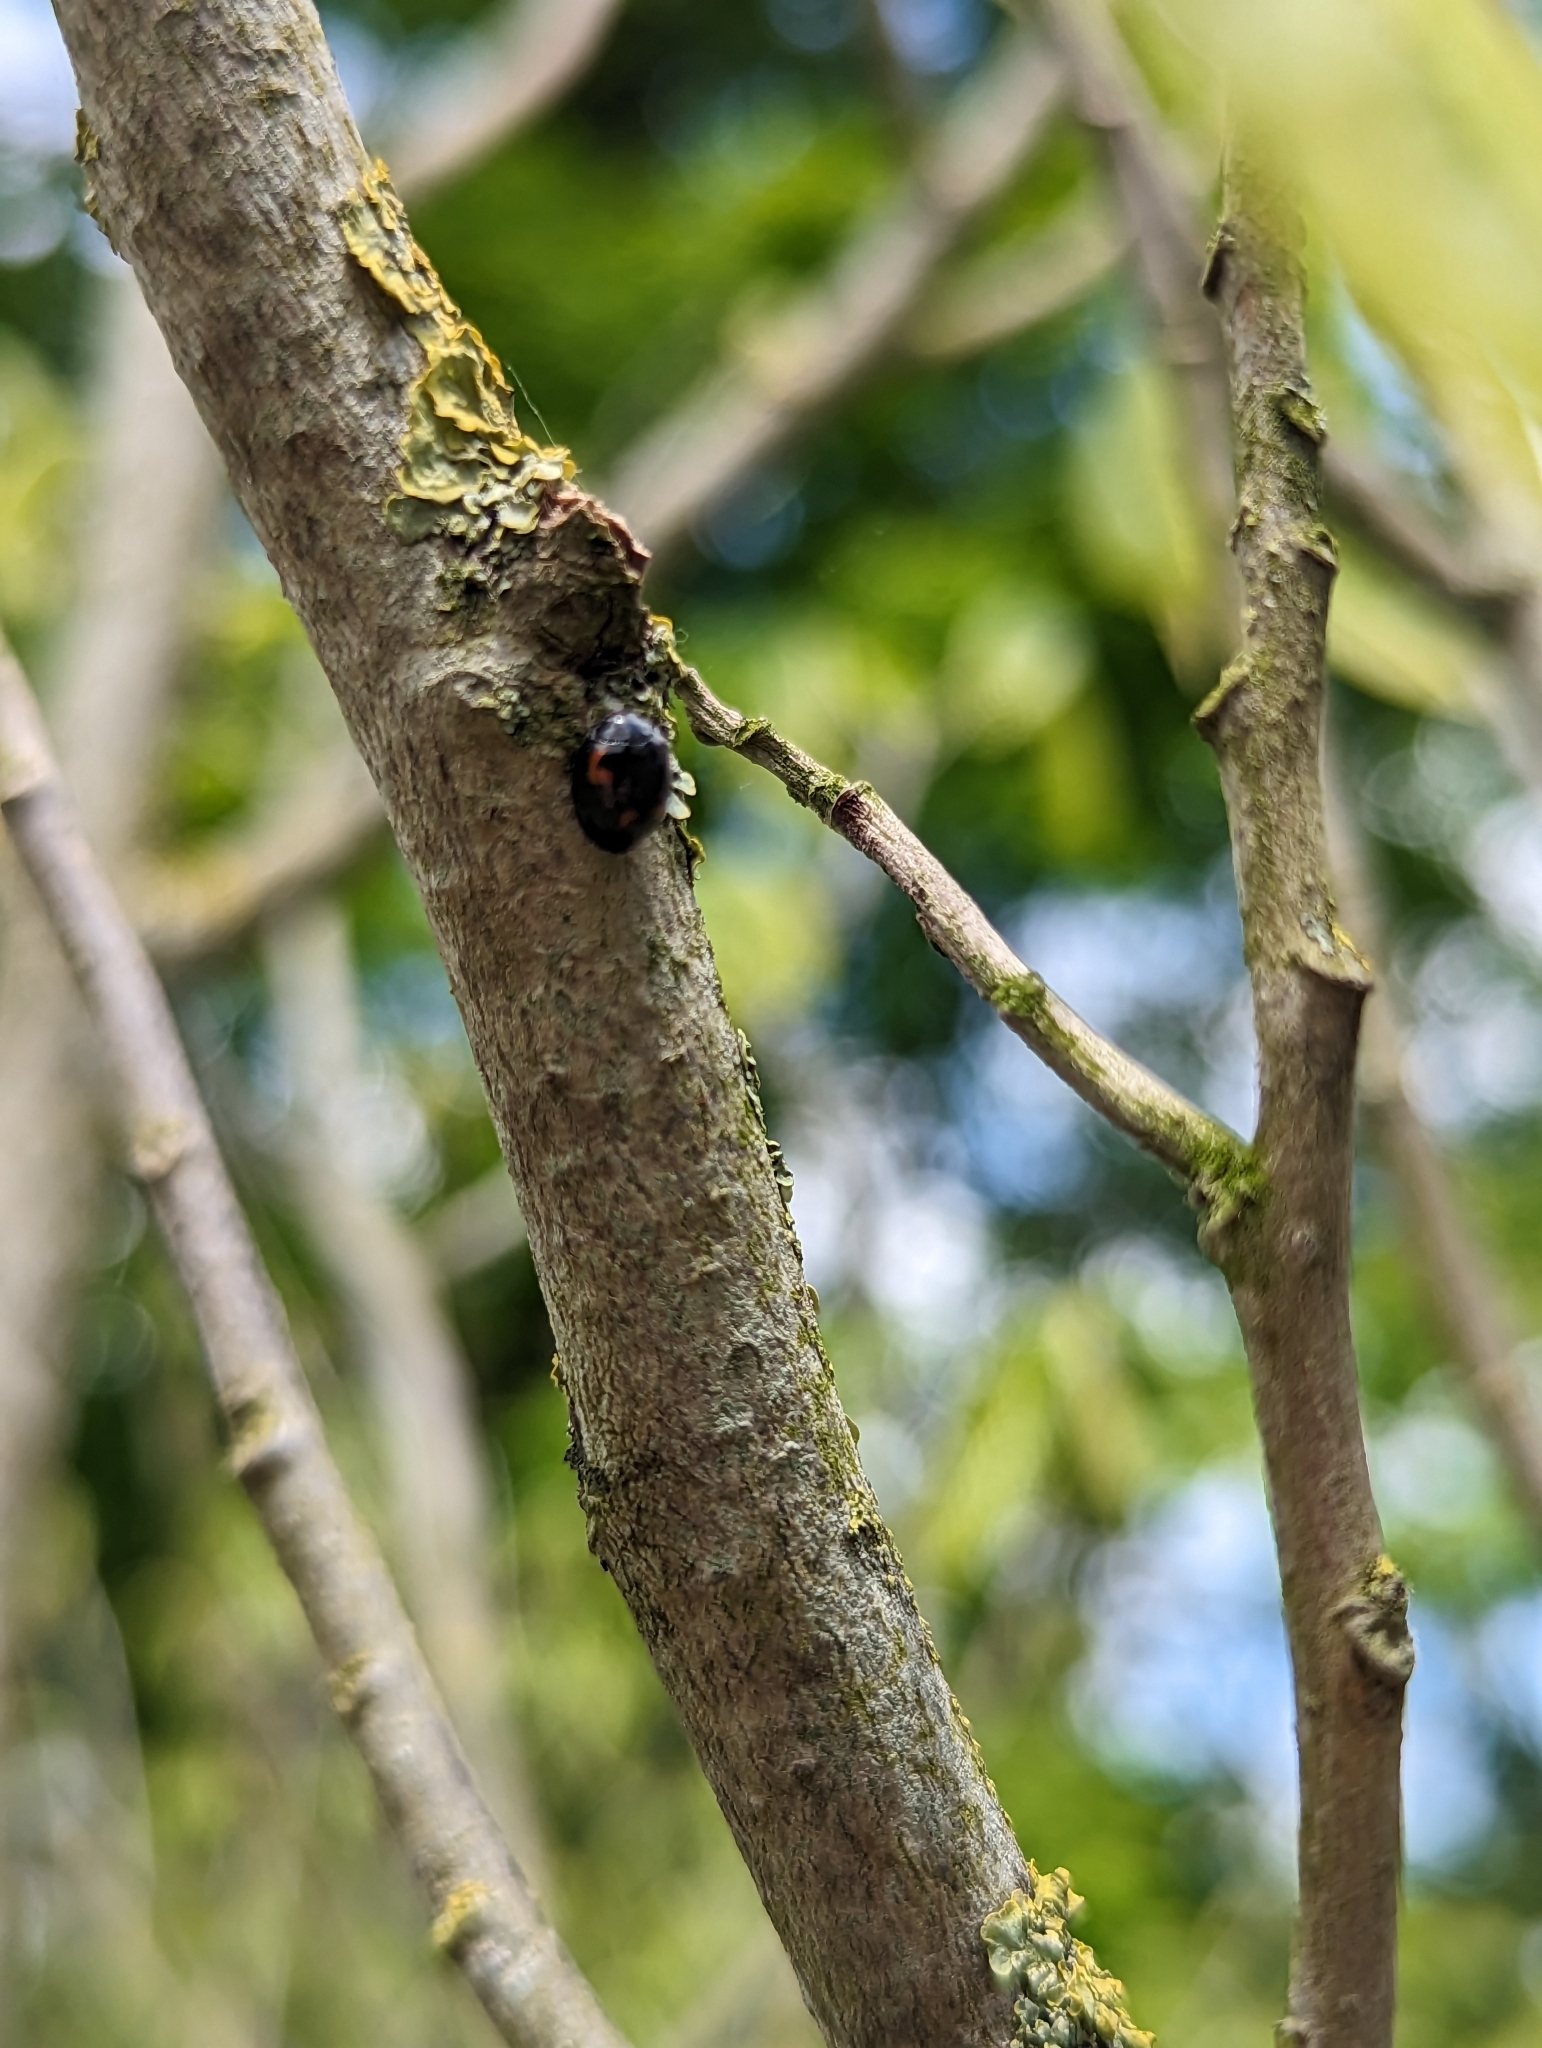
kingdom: Animalia
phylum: Arthropoda
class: Insecta
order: Coleoptera
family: Coccinellidae
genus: Brumus
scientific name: Brumus quadripustulatus
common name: Ladybird beetle
